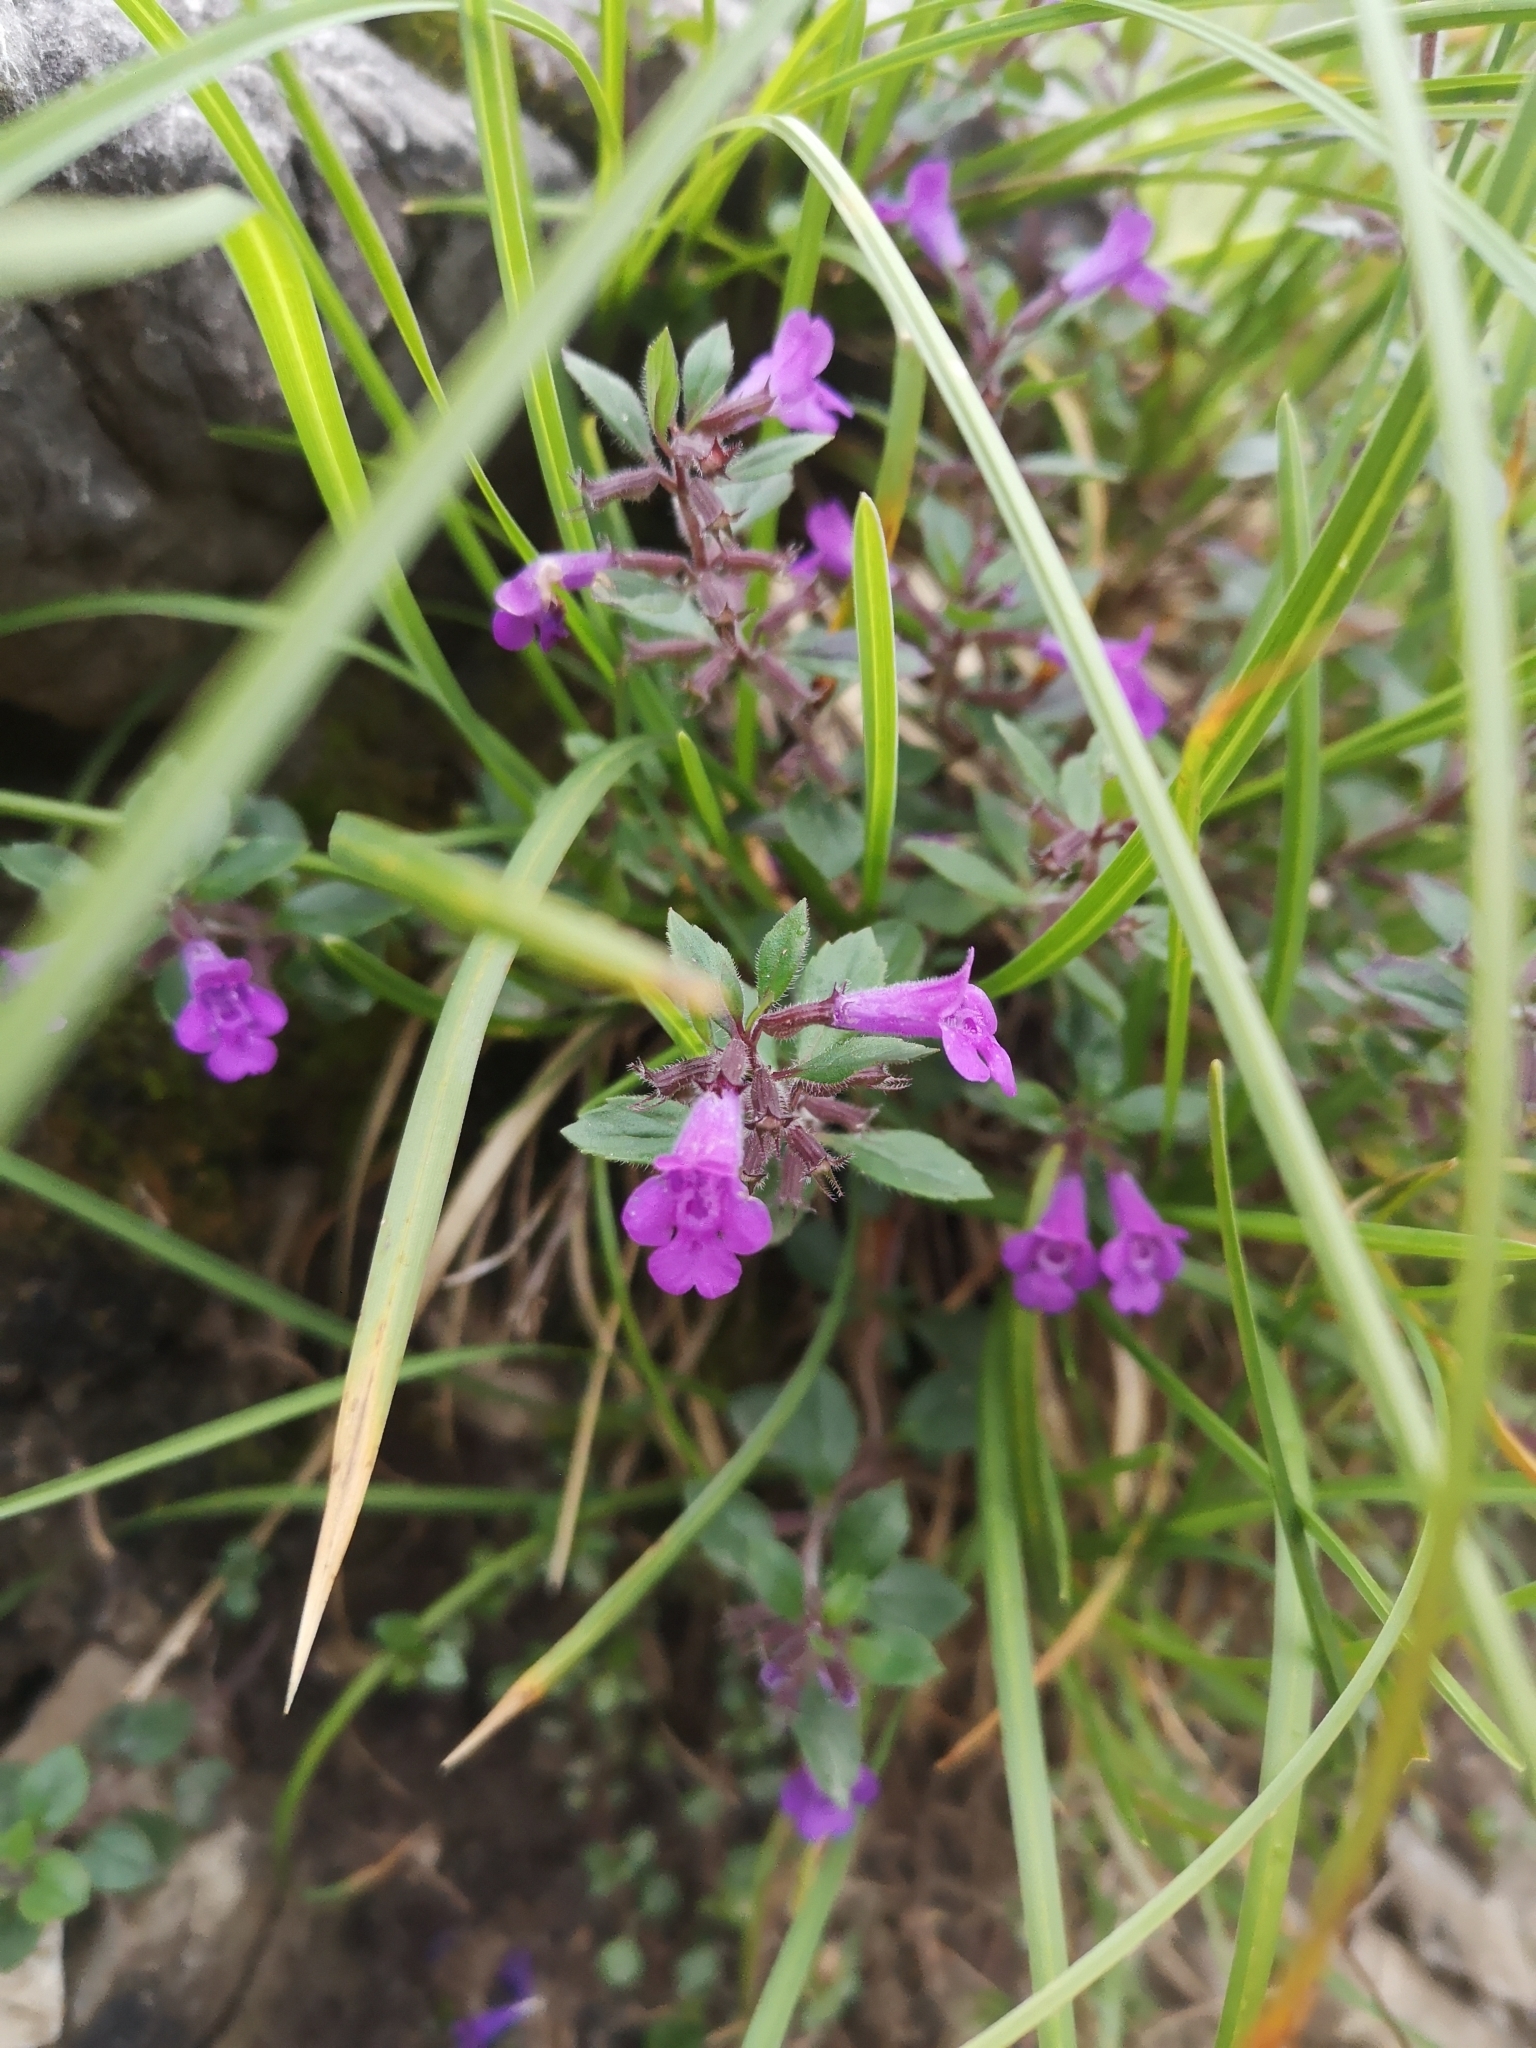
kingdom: Plantae
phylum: Tracheophyta
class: Magnoliopsida
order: Lamiales
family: Lamiaceae
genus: Clinopodium
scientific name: Clinopodium alpinum
